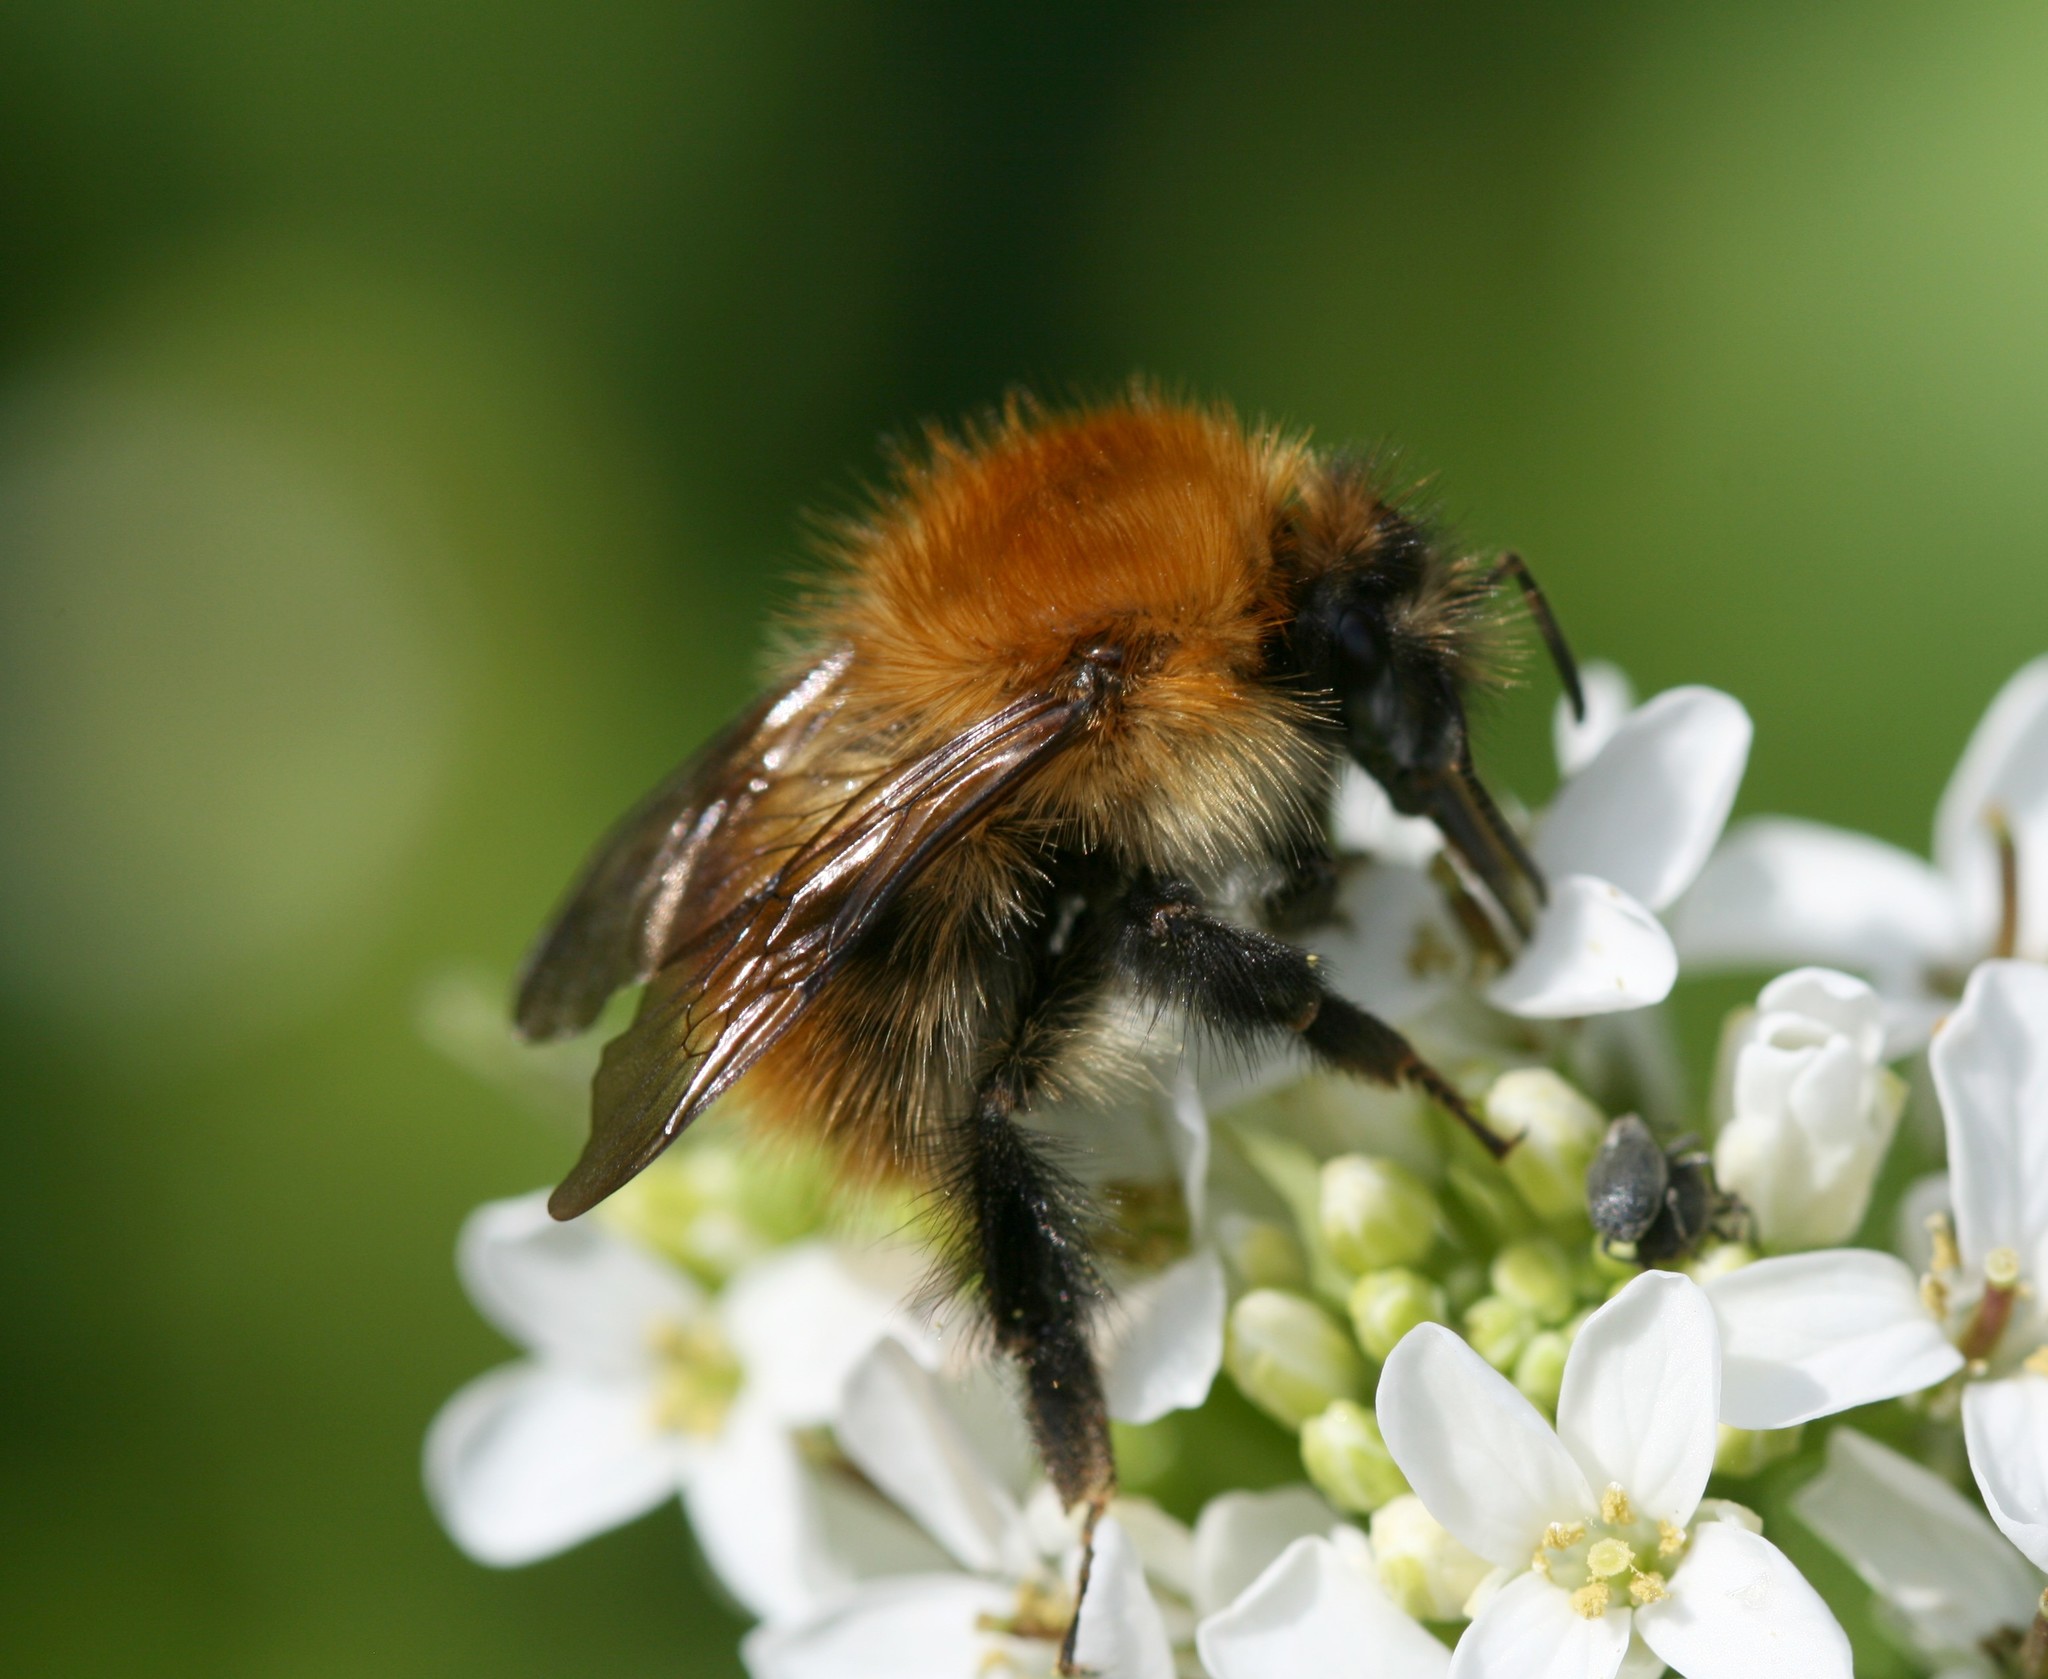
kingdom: Animalia
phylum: Arthropoda
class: Insecta
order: Hymenoptera
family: Apidae
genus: Bombus
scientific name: Bombus pascuorum
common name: Common carder bee
